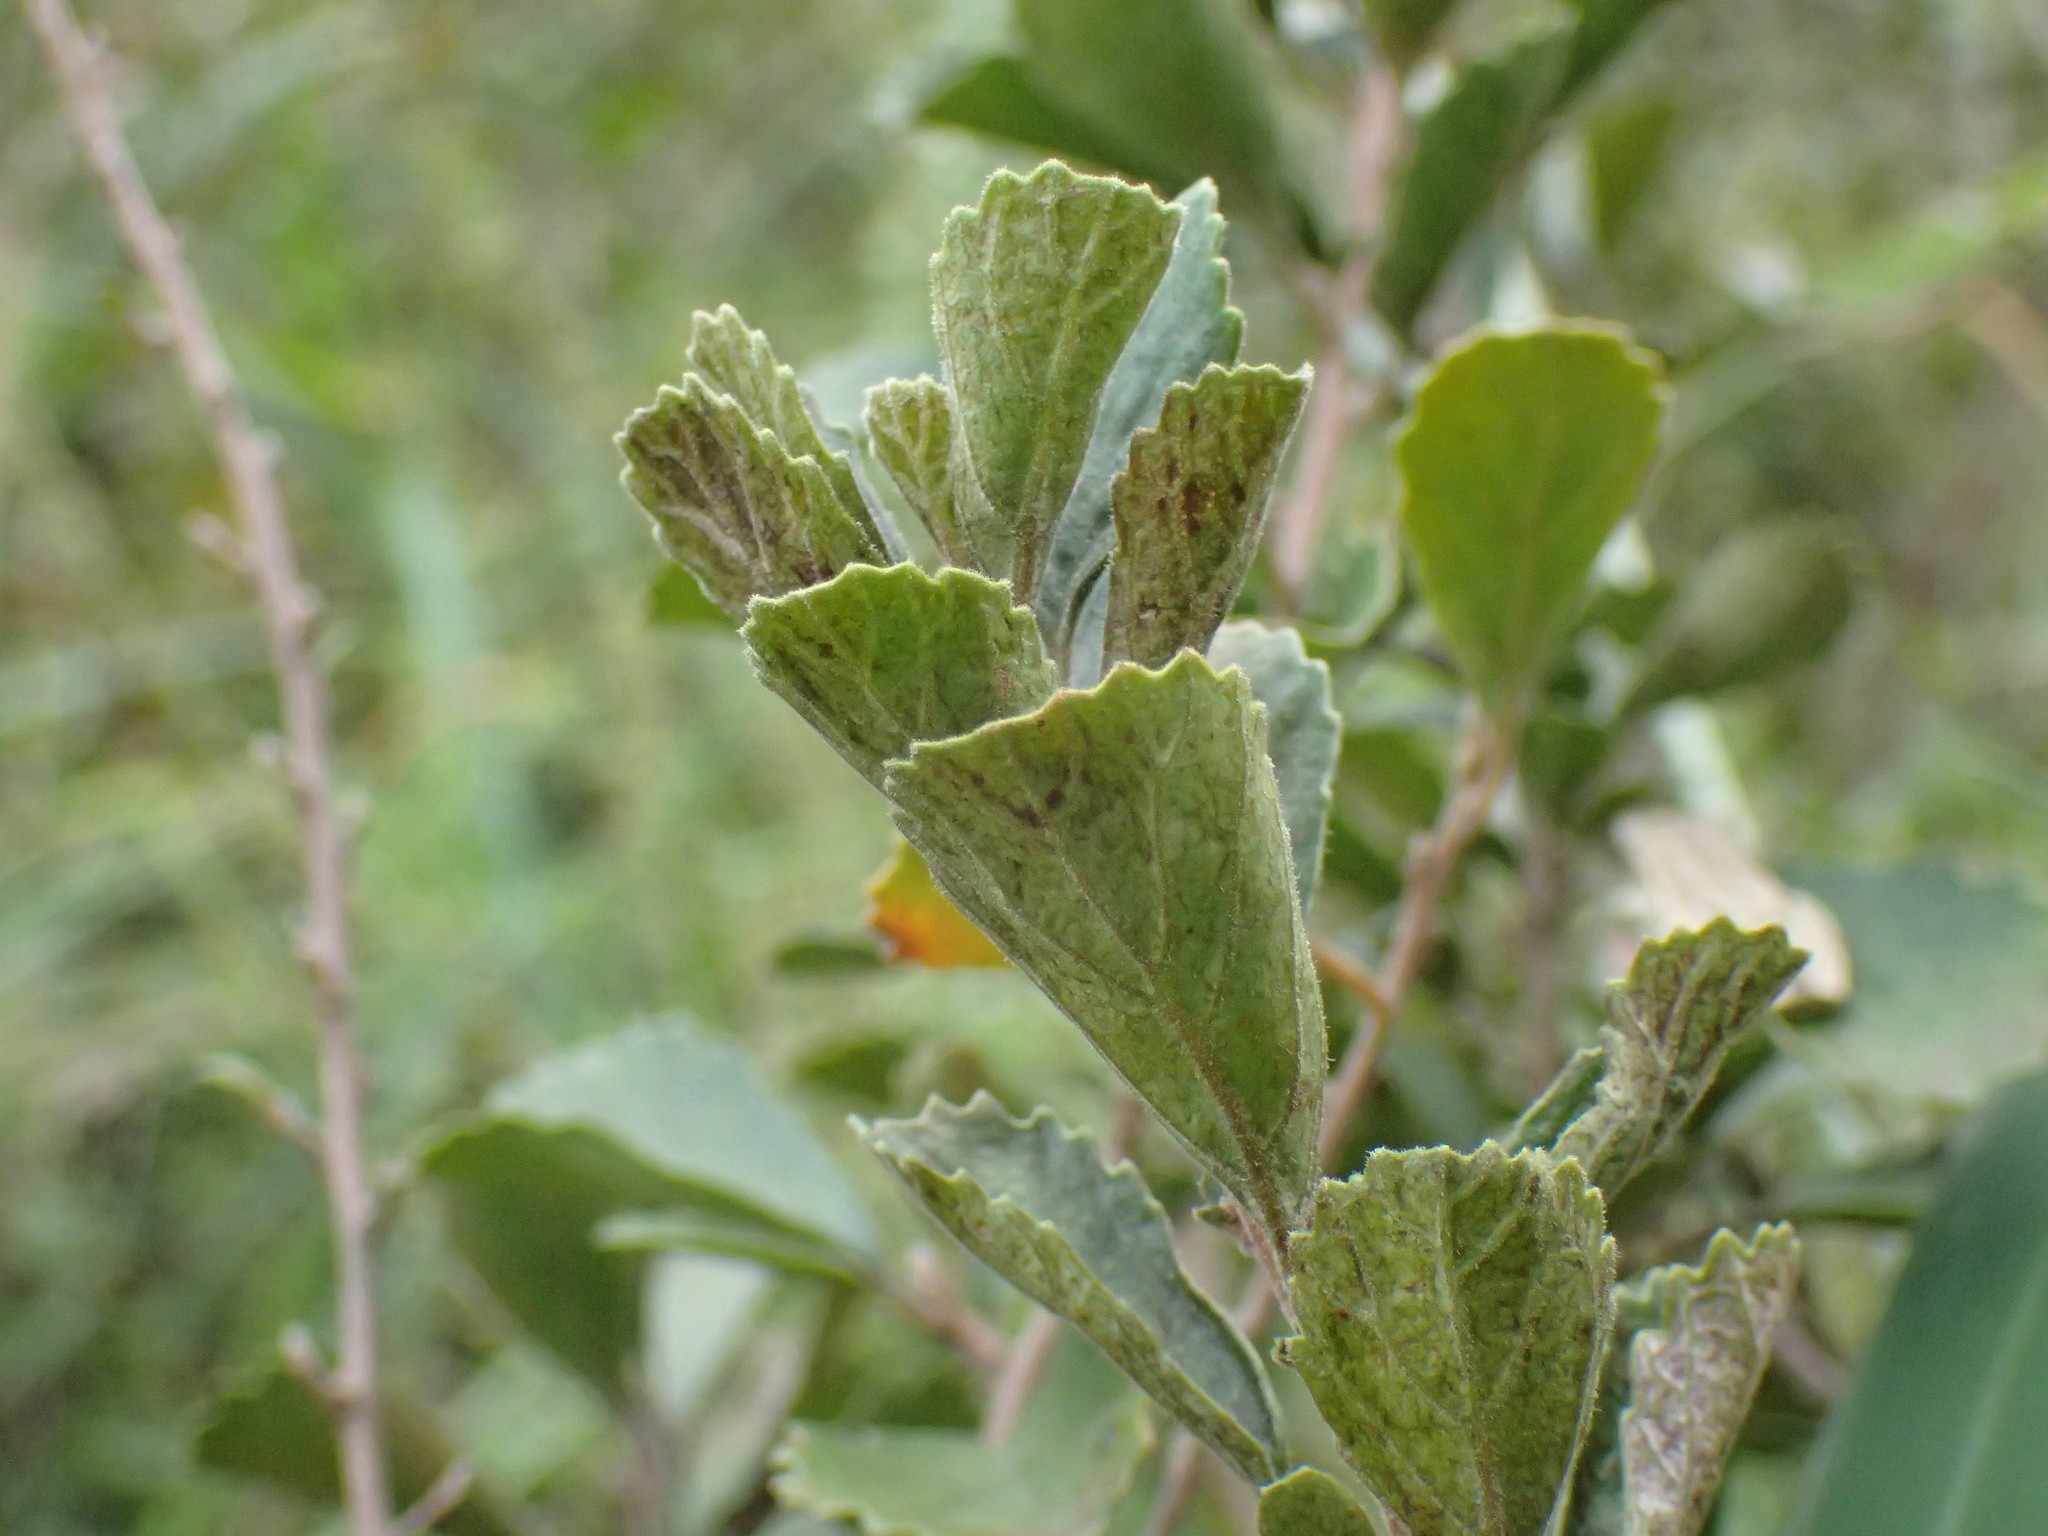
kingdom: Plantae
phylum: Tracheophyta
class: Magnoliopsida
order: Ericales
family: Primulaceae
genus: Maesa
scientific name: Maesa alnifolia
